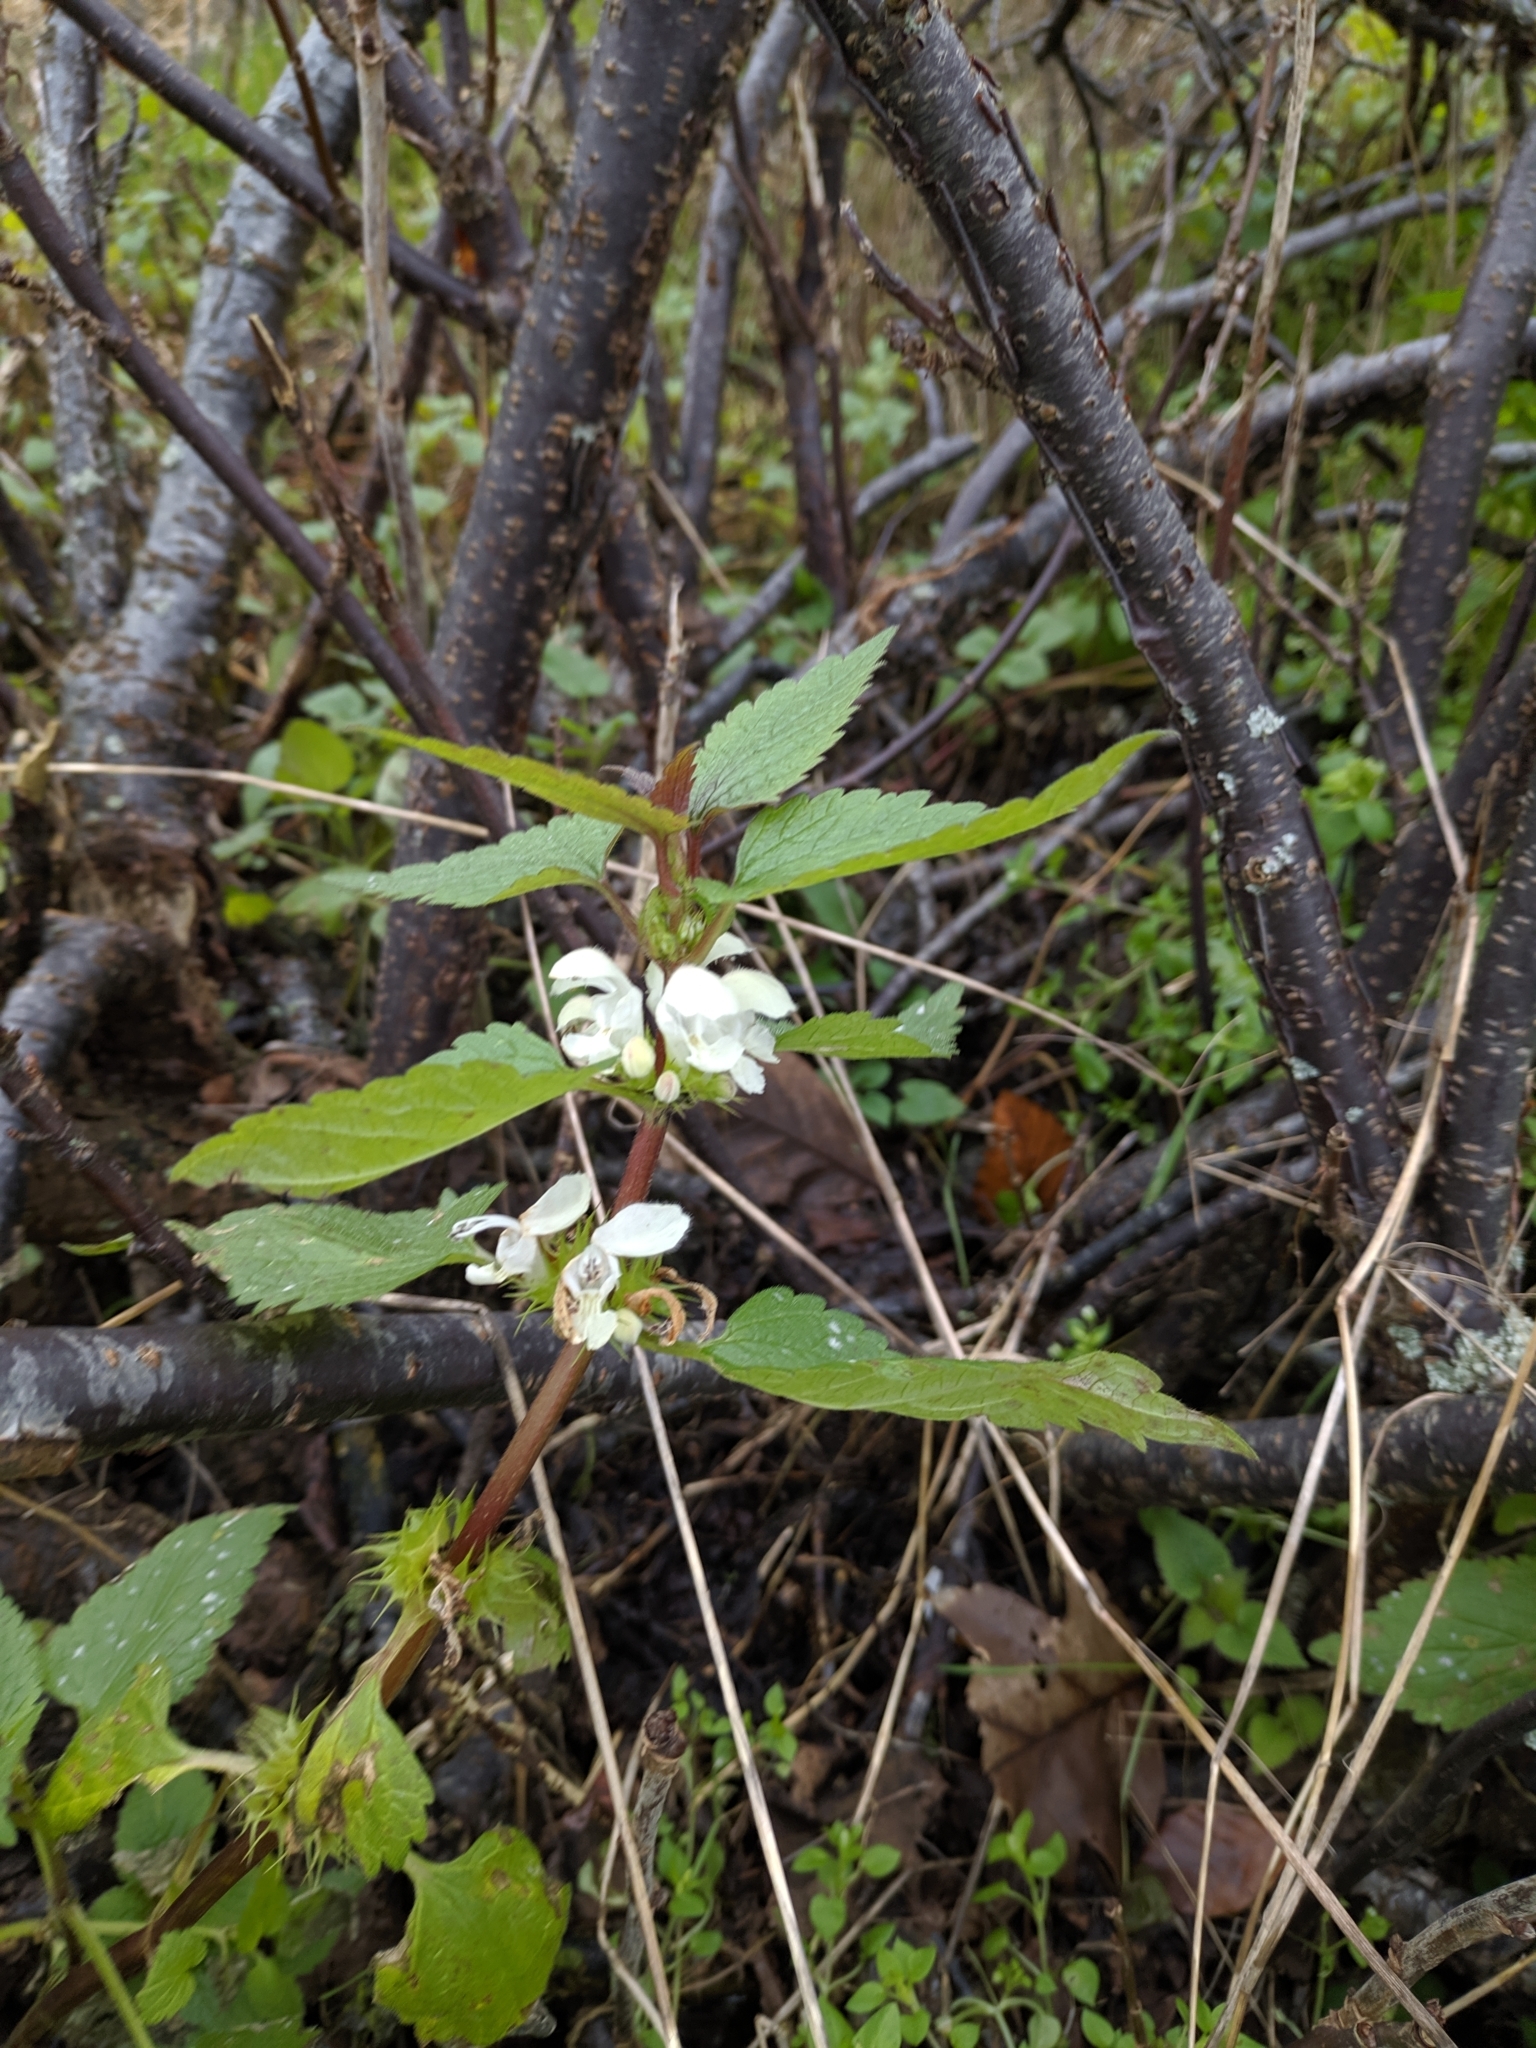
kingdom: Plantae
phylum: Tracheophyta
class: Magnoliopsida
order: Lamiales
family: Lamiaceae
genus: Lamium
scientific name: Lamium album
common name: White dead-nettle
